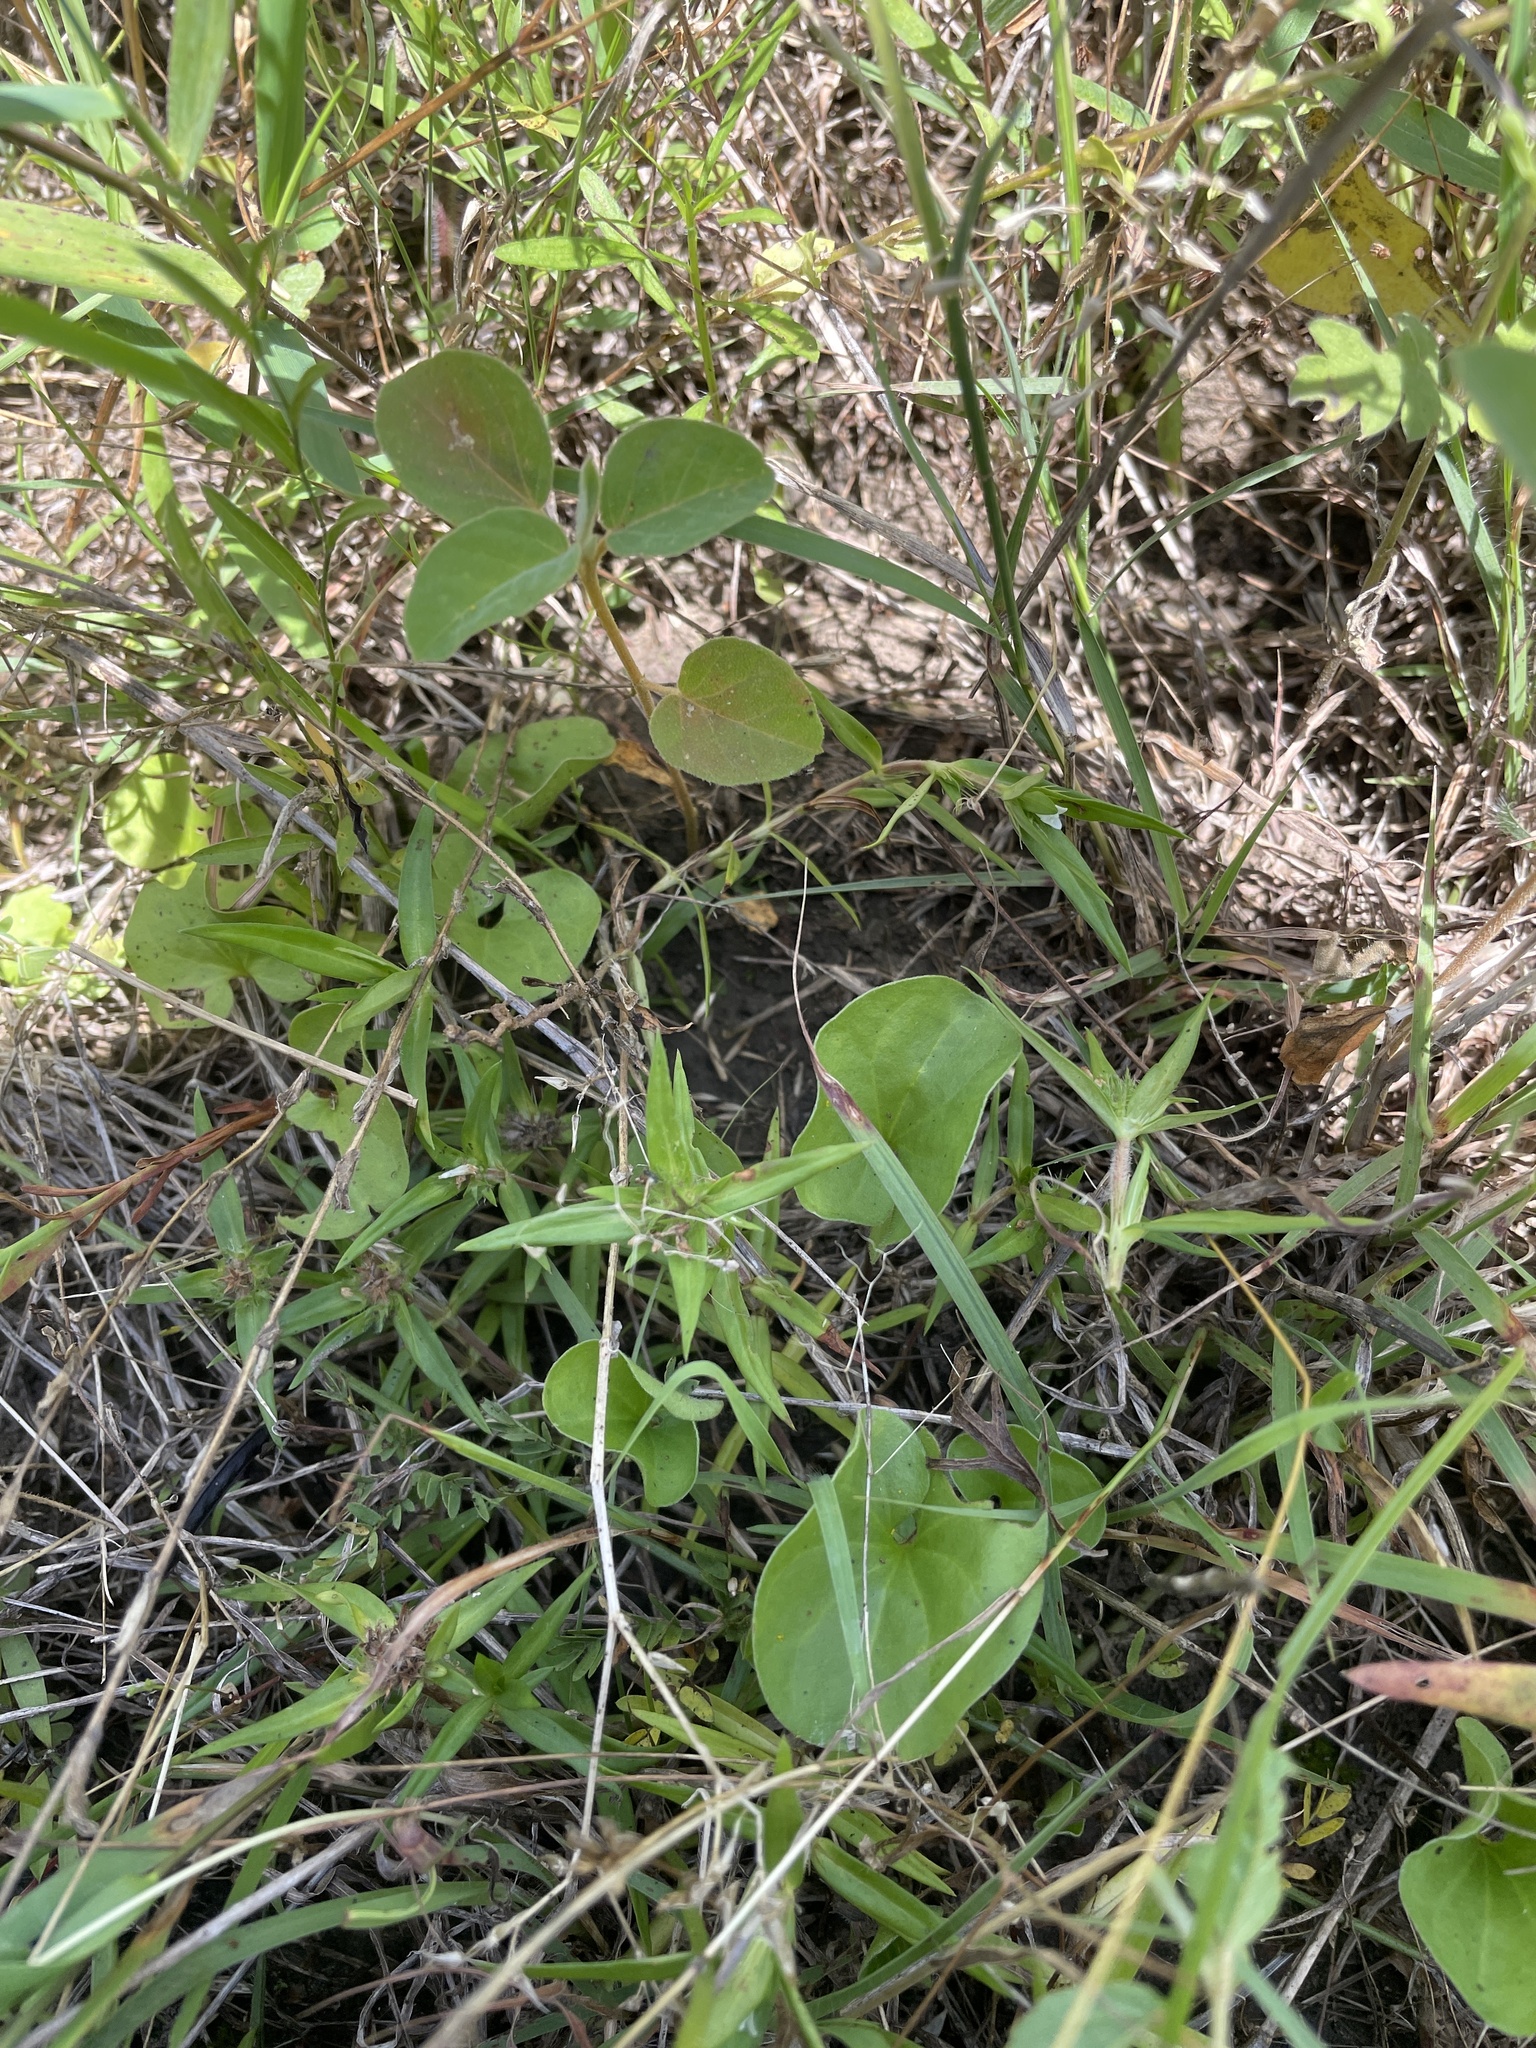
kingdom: Plantae
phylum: Tracheophyta
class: Magnoliopsida
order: Gentianales
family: Rubiaceae
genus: Richardia
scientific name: Richardia tricocca
